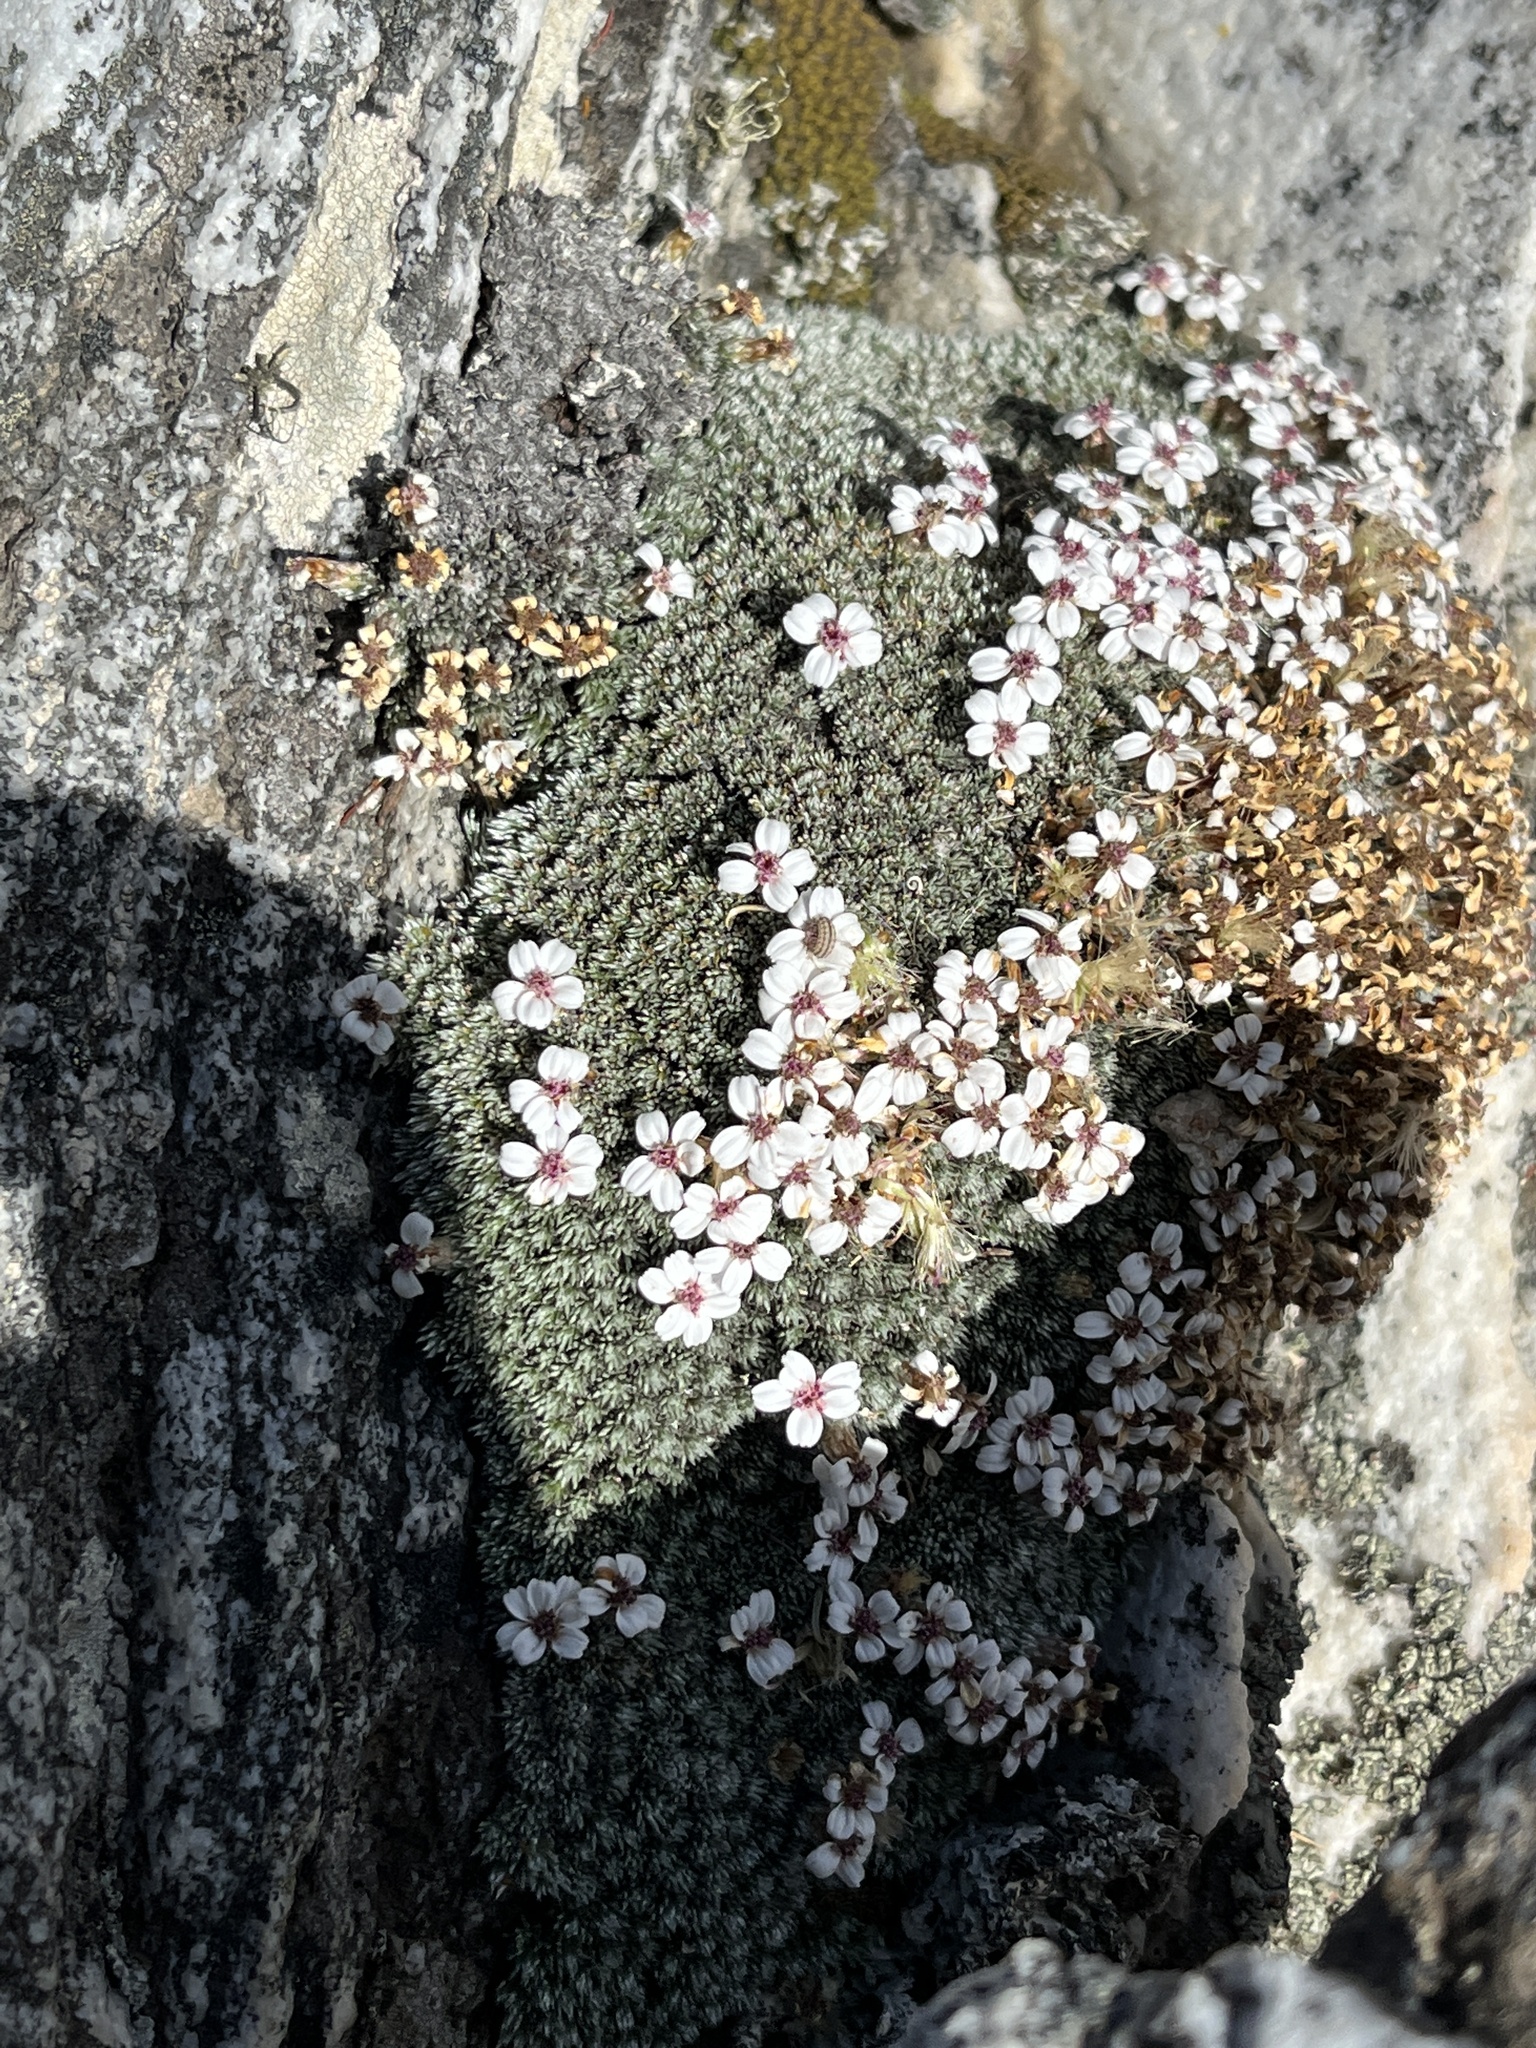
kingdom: Plantae
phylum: Tracheophyta
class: Magnoliopsida
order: Asterales
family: Asteraceae
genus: Muscosomorphe
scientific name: Muscosomorphe aretioides
